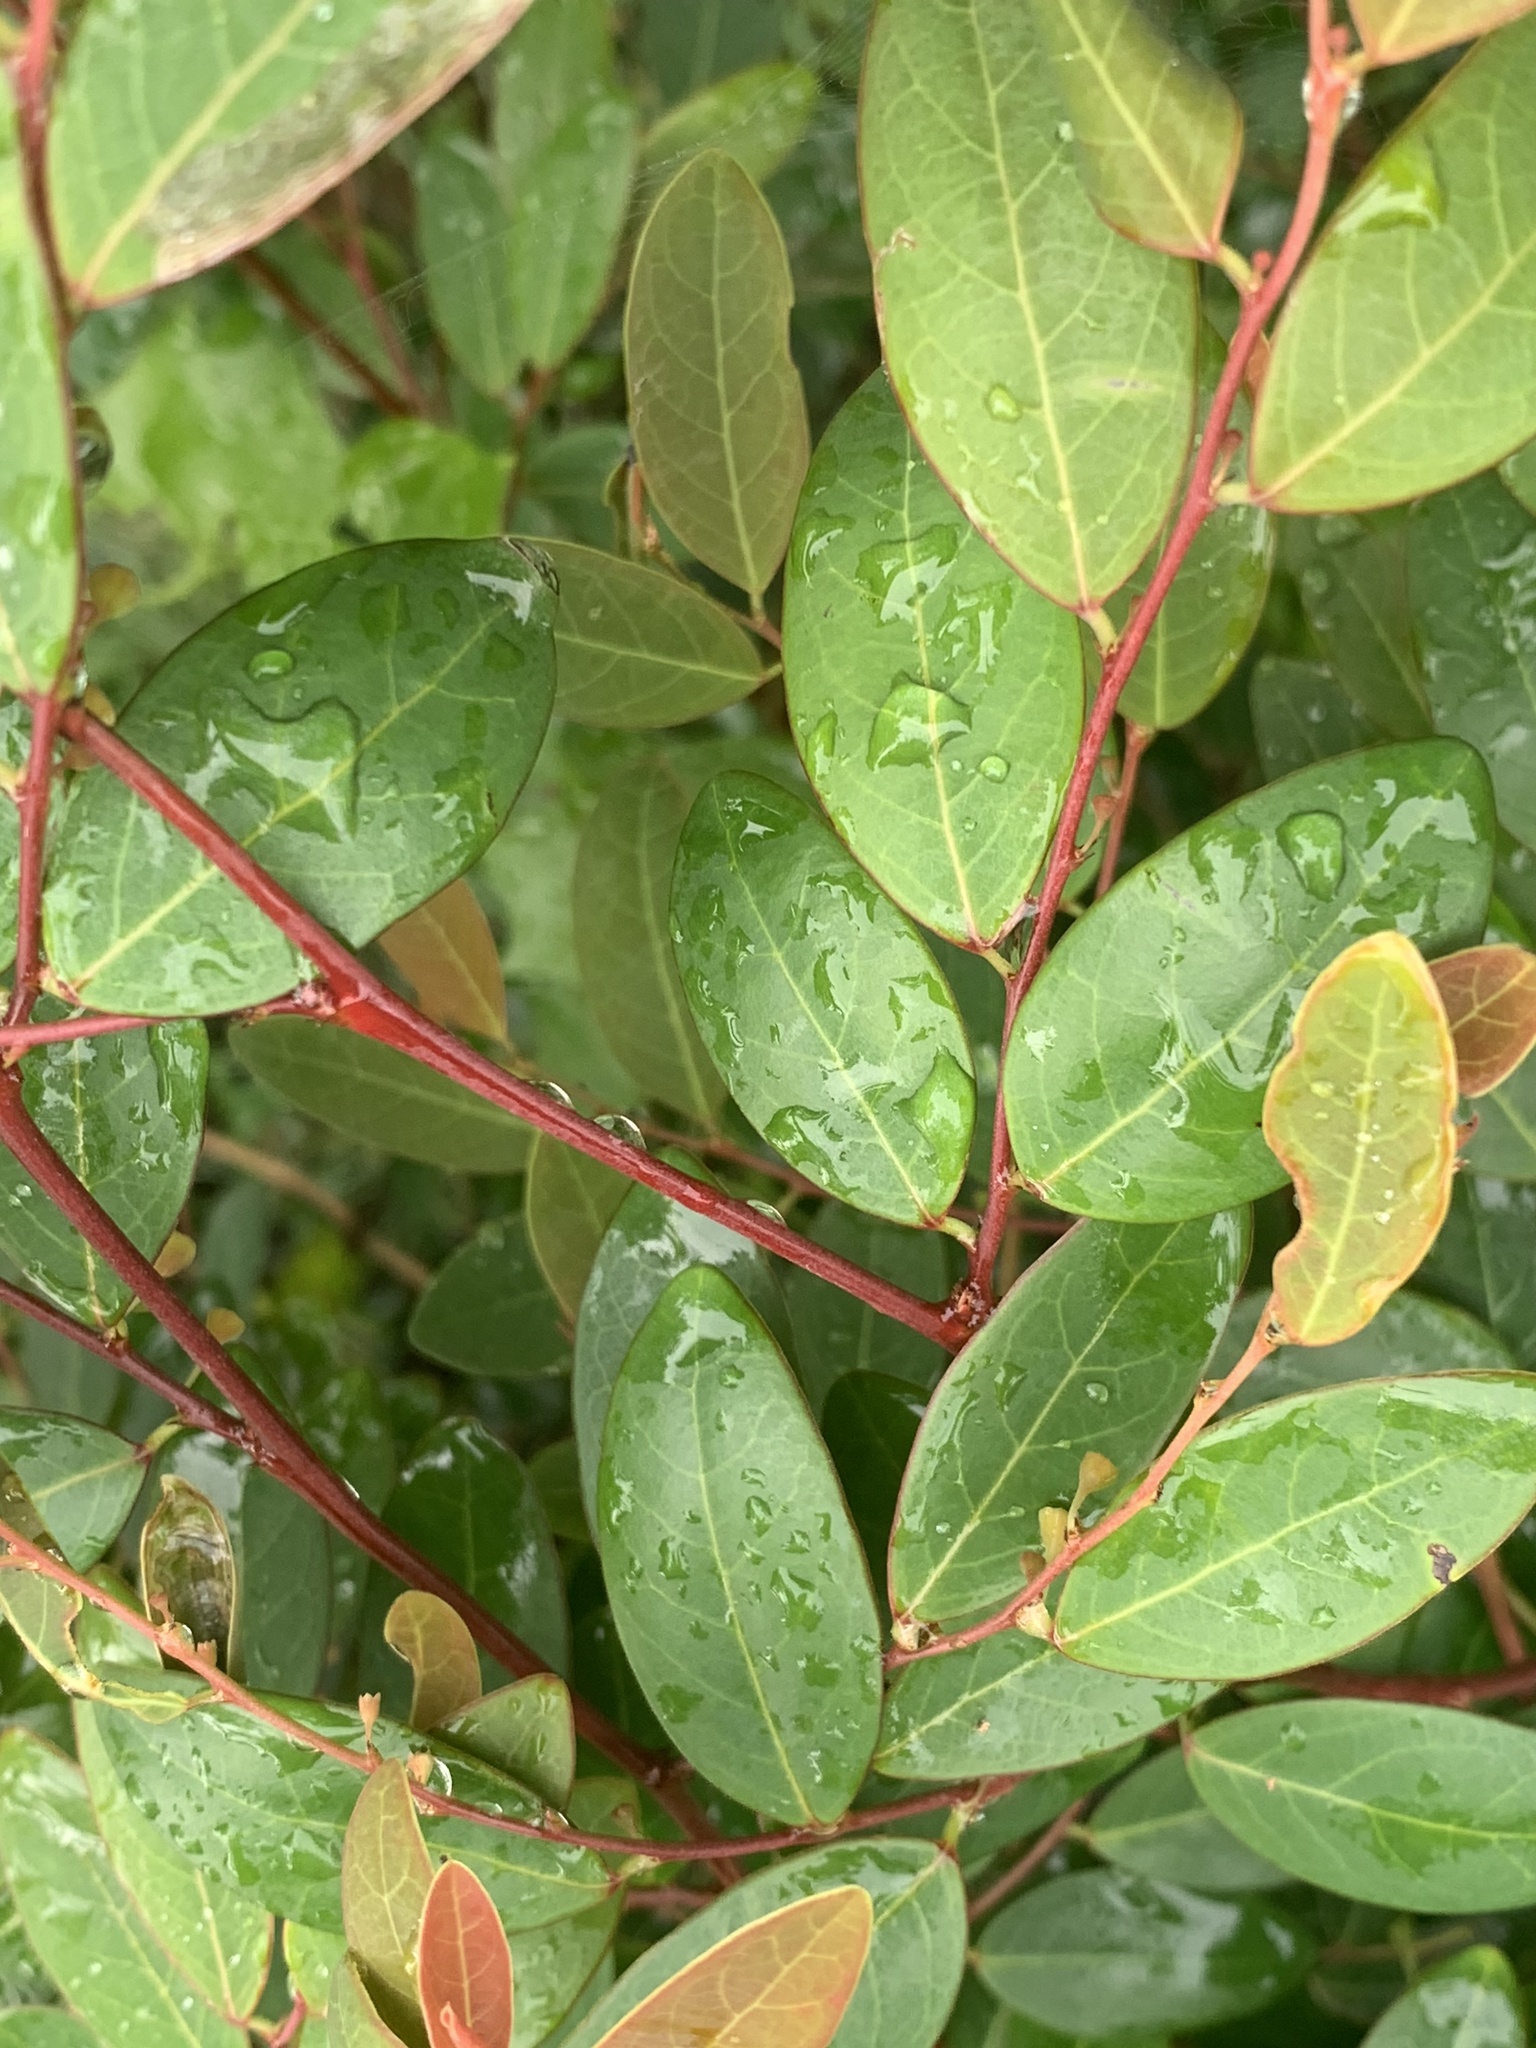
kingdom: Plantae
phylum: Tracheophyta
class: Magnoliopsida
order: Malpighiales
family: Phyllanthaceae
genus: Breynia
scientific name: Breynia oblongifolia
